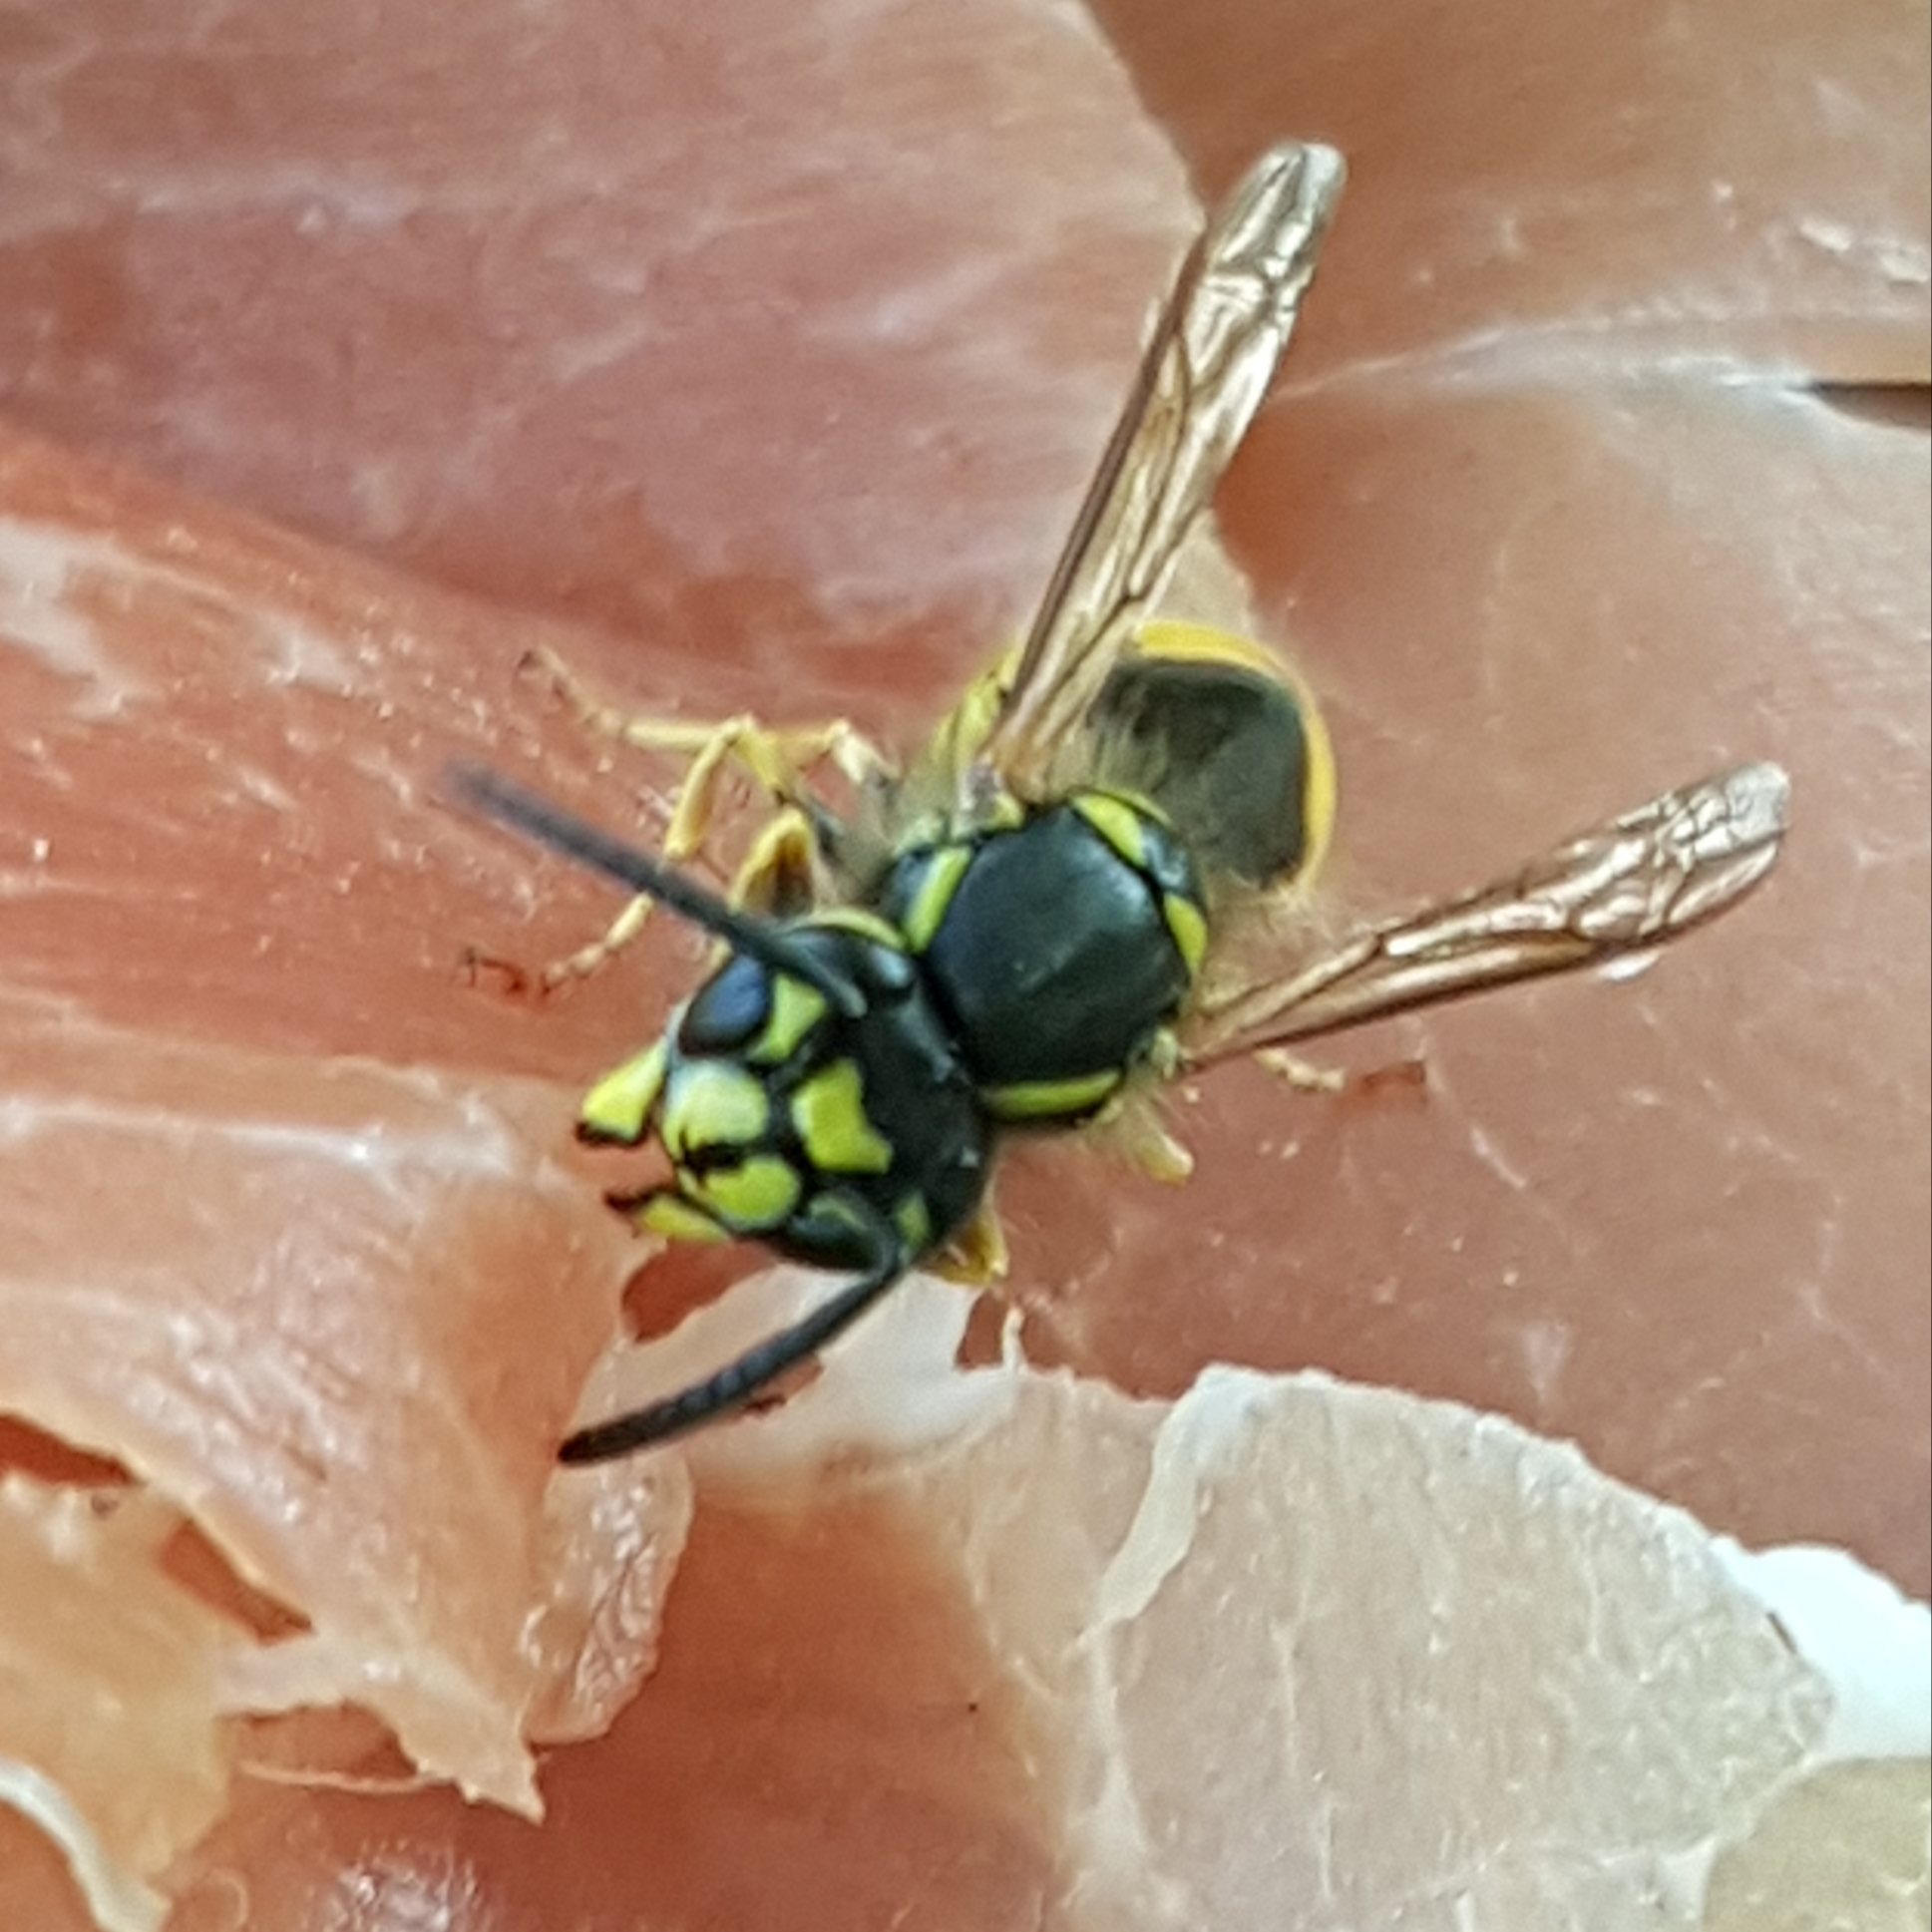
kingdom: Animalia
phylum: Arthropoda
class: Insecta
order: Hymenoptera
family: Vespidae
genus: Vespula
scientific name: Vespula vulgaris
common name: Common wasp
